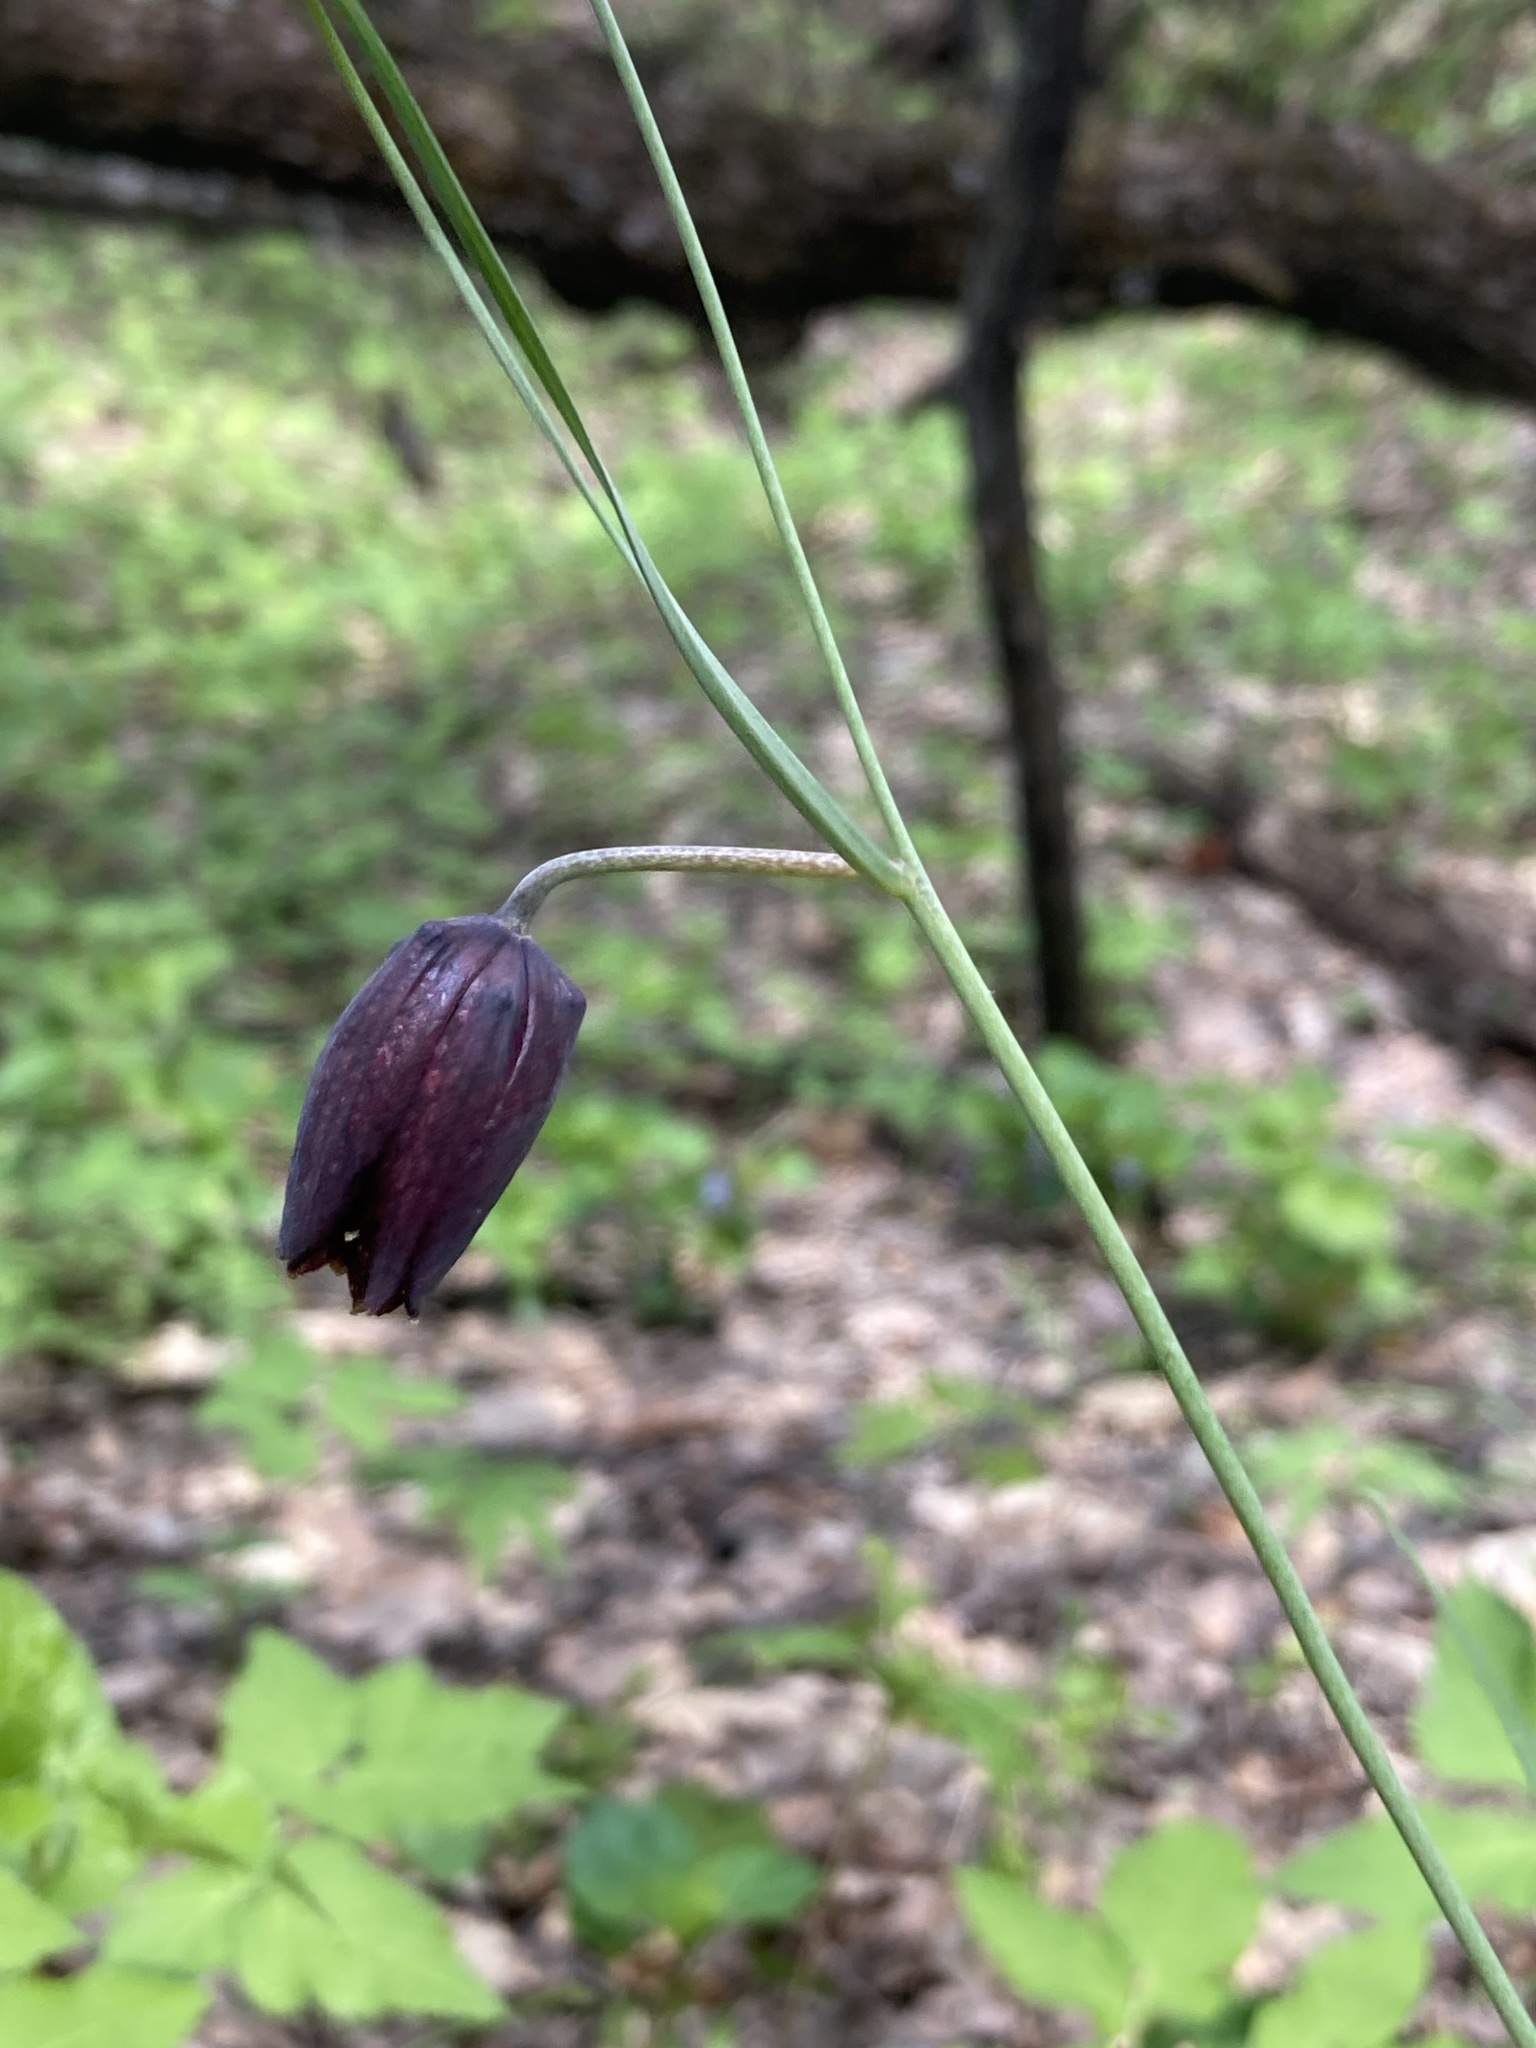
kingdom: Plantae
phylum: Tracheophyta
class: Liliopsida
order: Liliales
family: Liliaceae
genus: Fritillaria
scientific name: Fritillaria ruthenica
